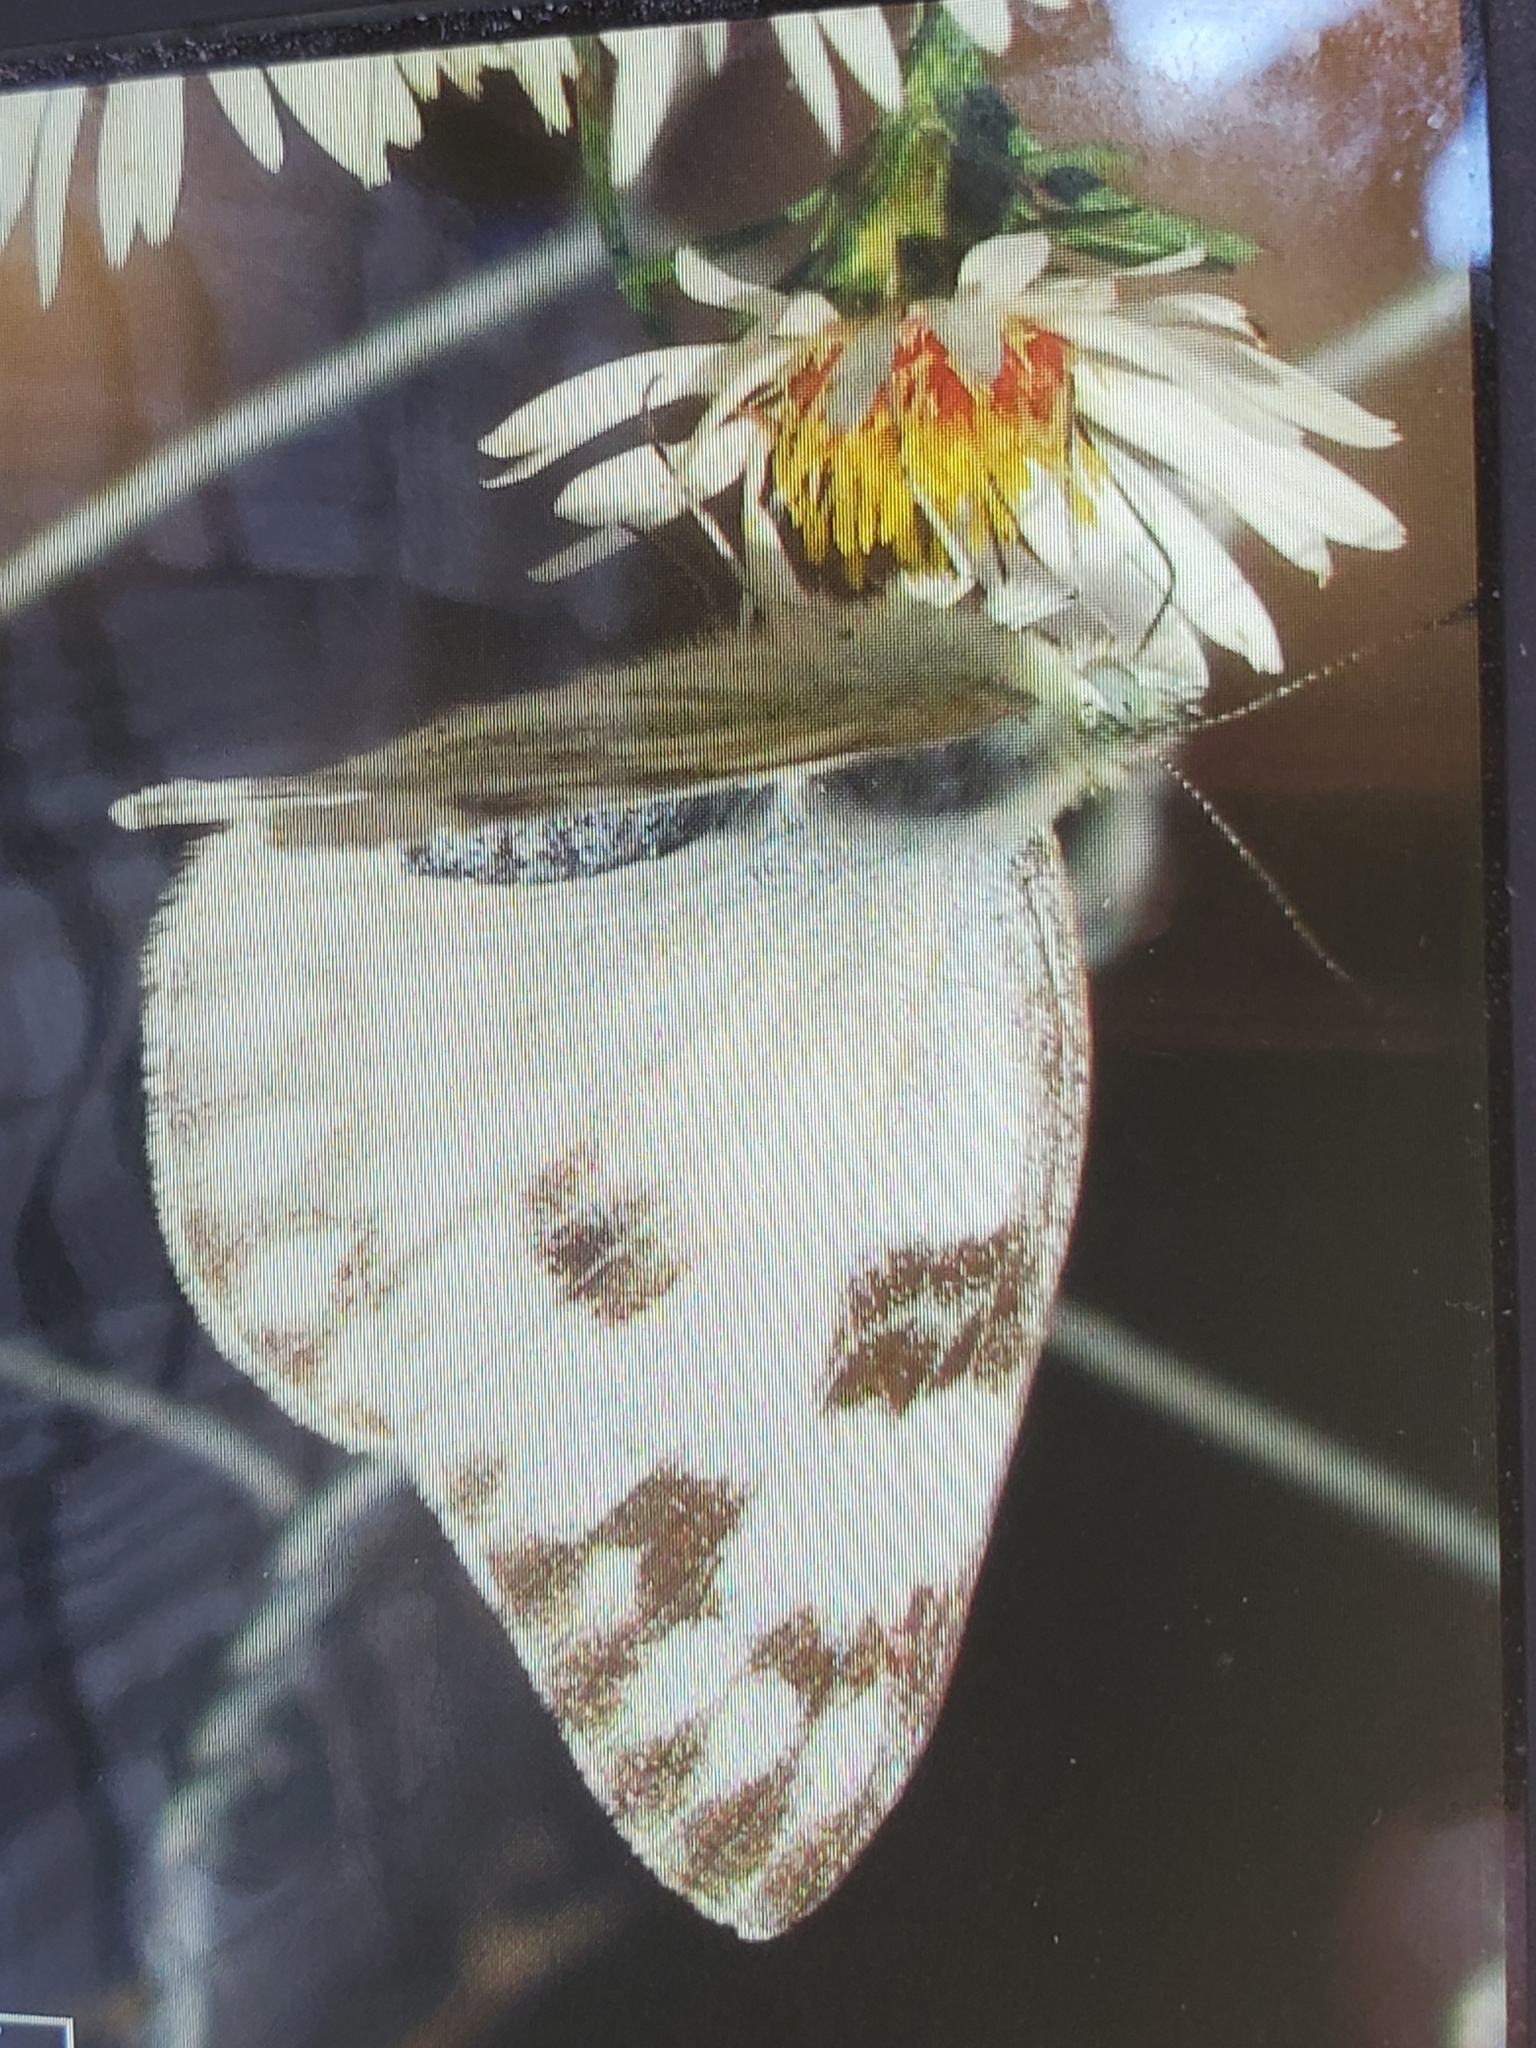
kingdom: Animalia
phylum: Arthropoda
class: Insecta
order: Lepidoptera
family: Pieridae
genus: Pontia
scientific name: Pontia protodice
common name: Checkered white
